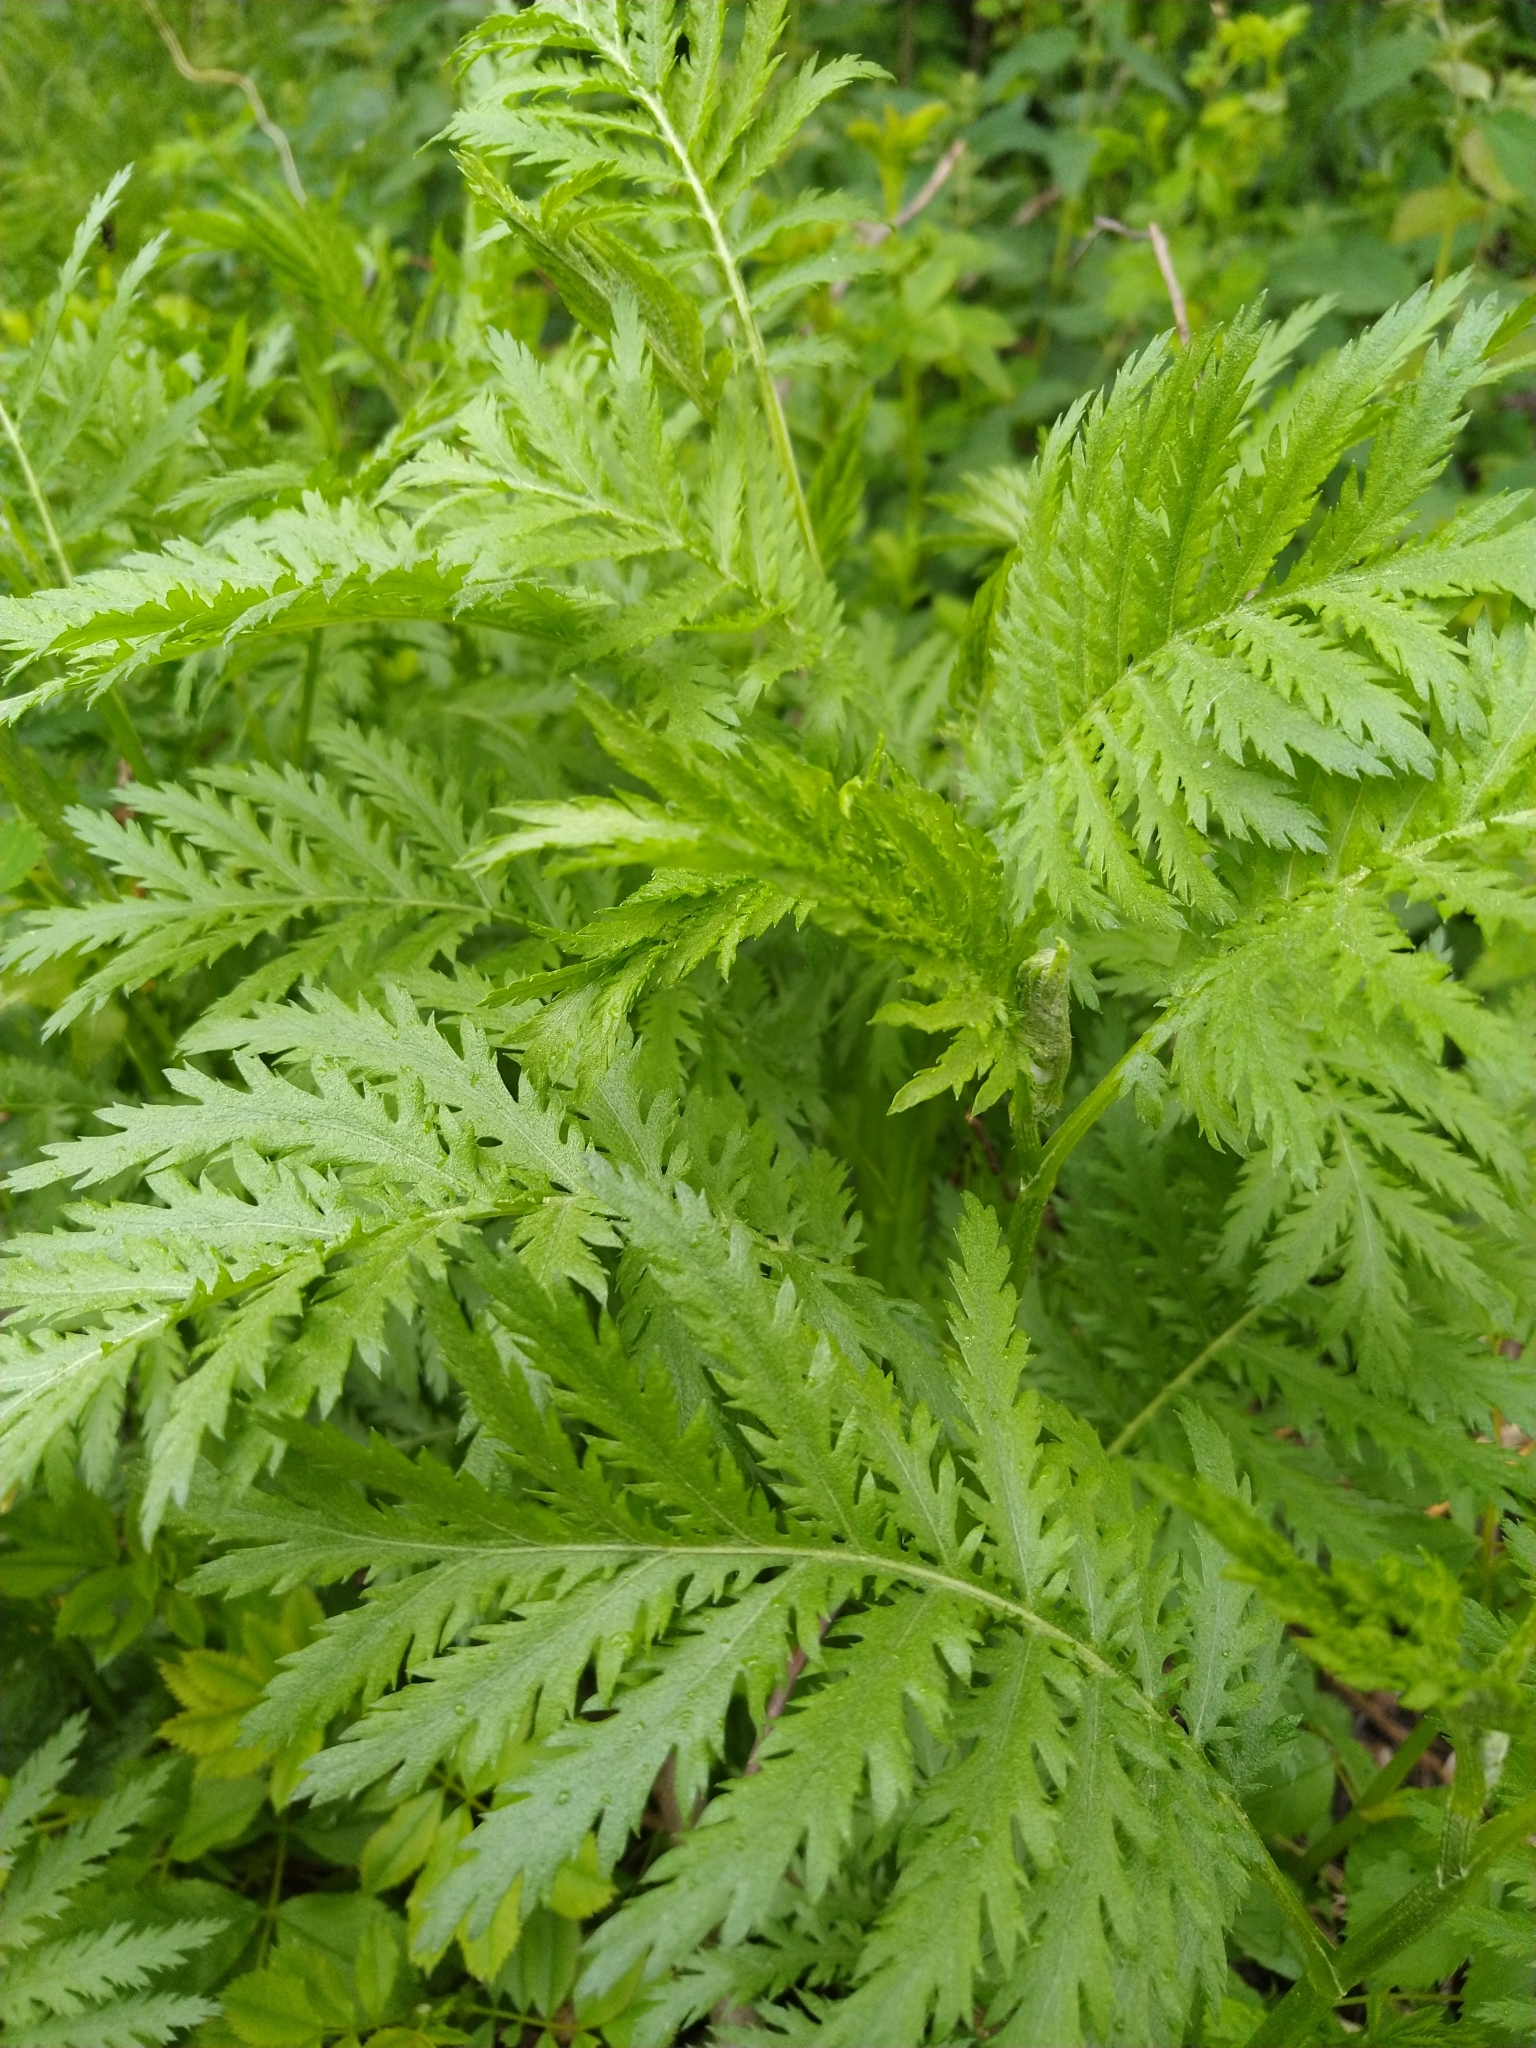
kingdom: Plantae
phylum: Tracheophyta
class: Magnoliopsida
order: Asterales
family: Asteraceae
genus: Tanacetum
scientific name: Tanacetum vulgare
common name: Common tansy
